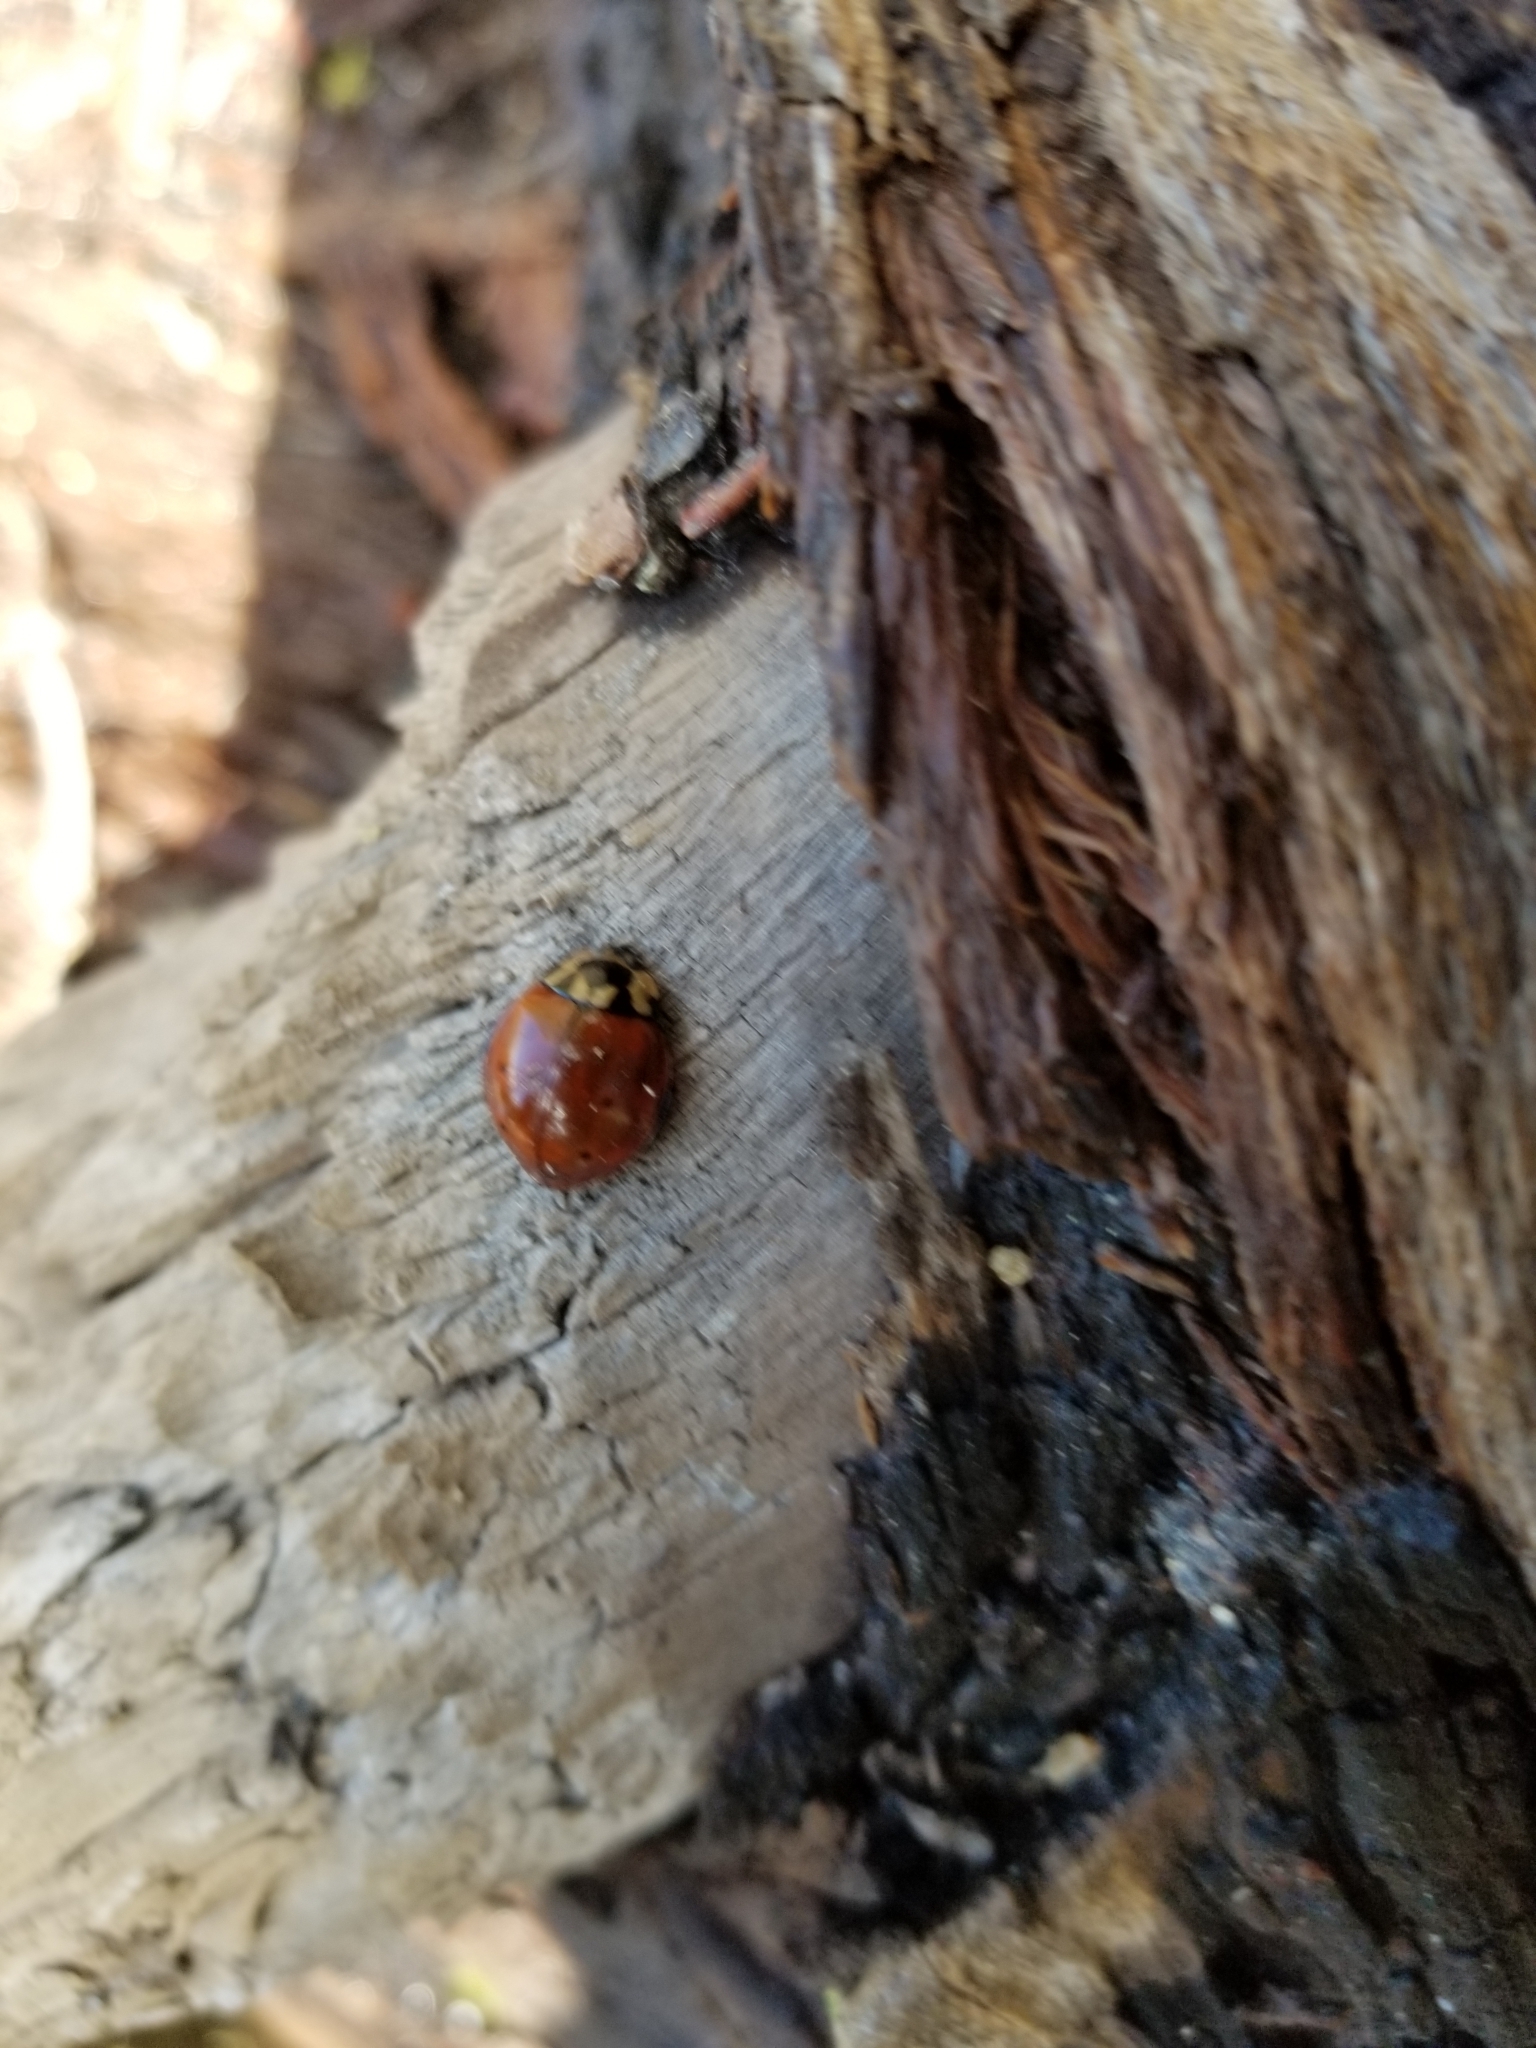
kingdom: Animalia
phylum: Arthropoda
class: Insecta
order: Coleoptera
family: Coccinellidae
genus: Anatis
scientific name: Anatis rathvoni
